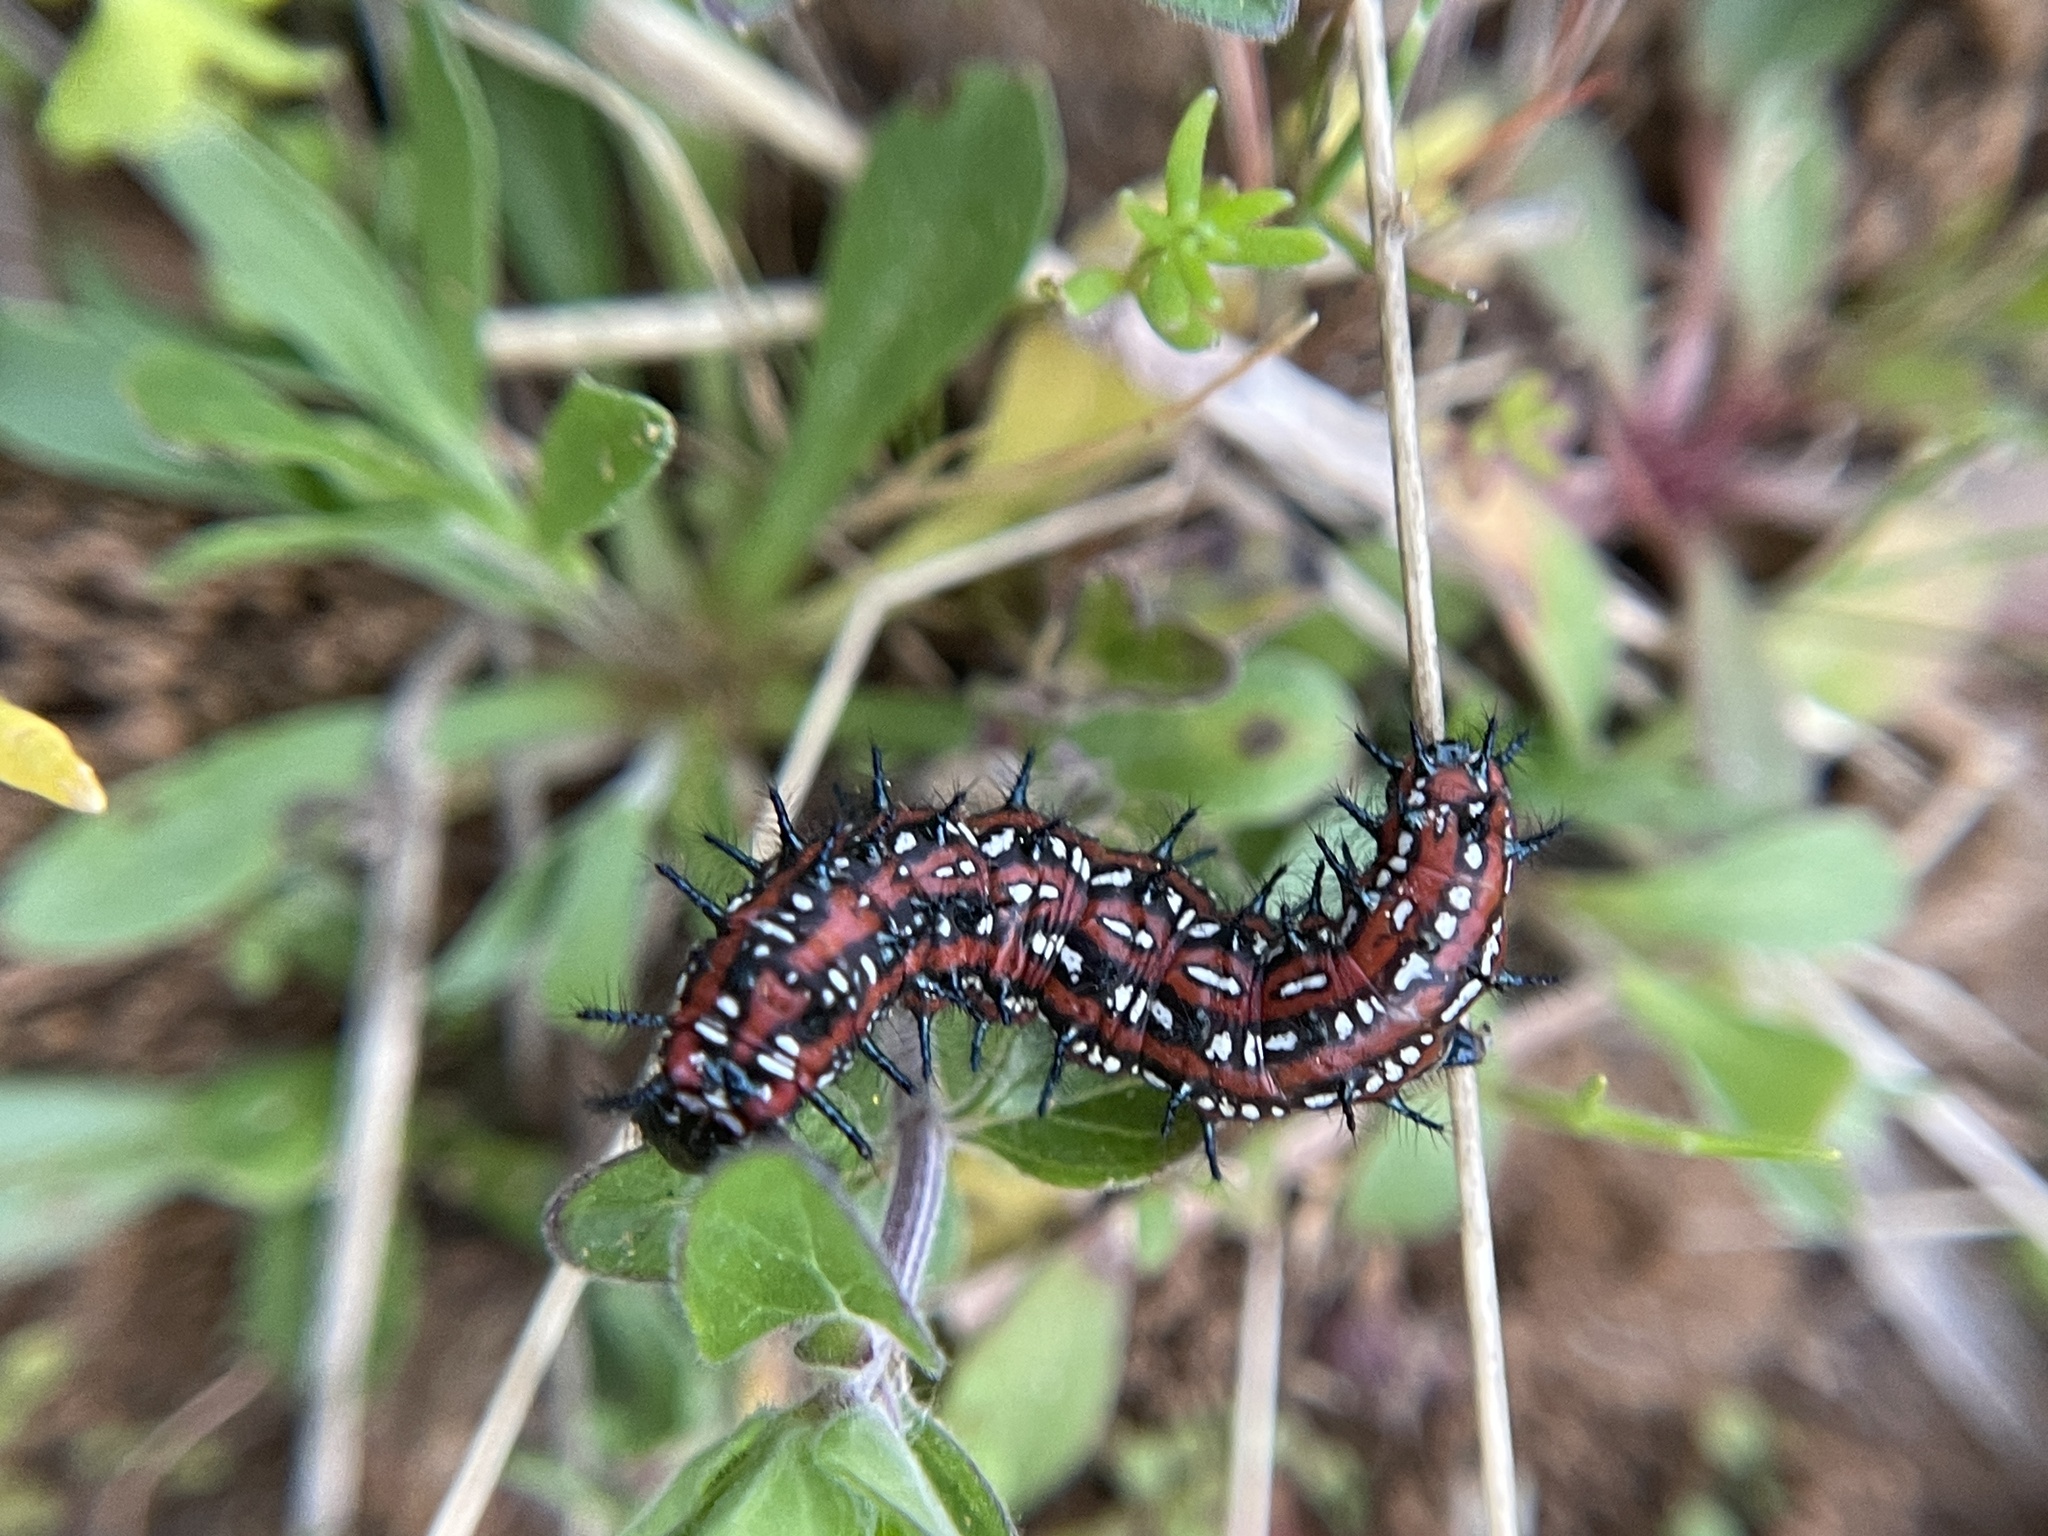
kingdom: Animalia
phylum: Arthropoda
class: Insecta
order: Lepidoptera
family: Nymphalidae
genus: Euptoieta
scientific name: Euptoieta claudia
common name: Variegated fritillary
